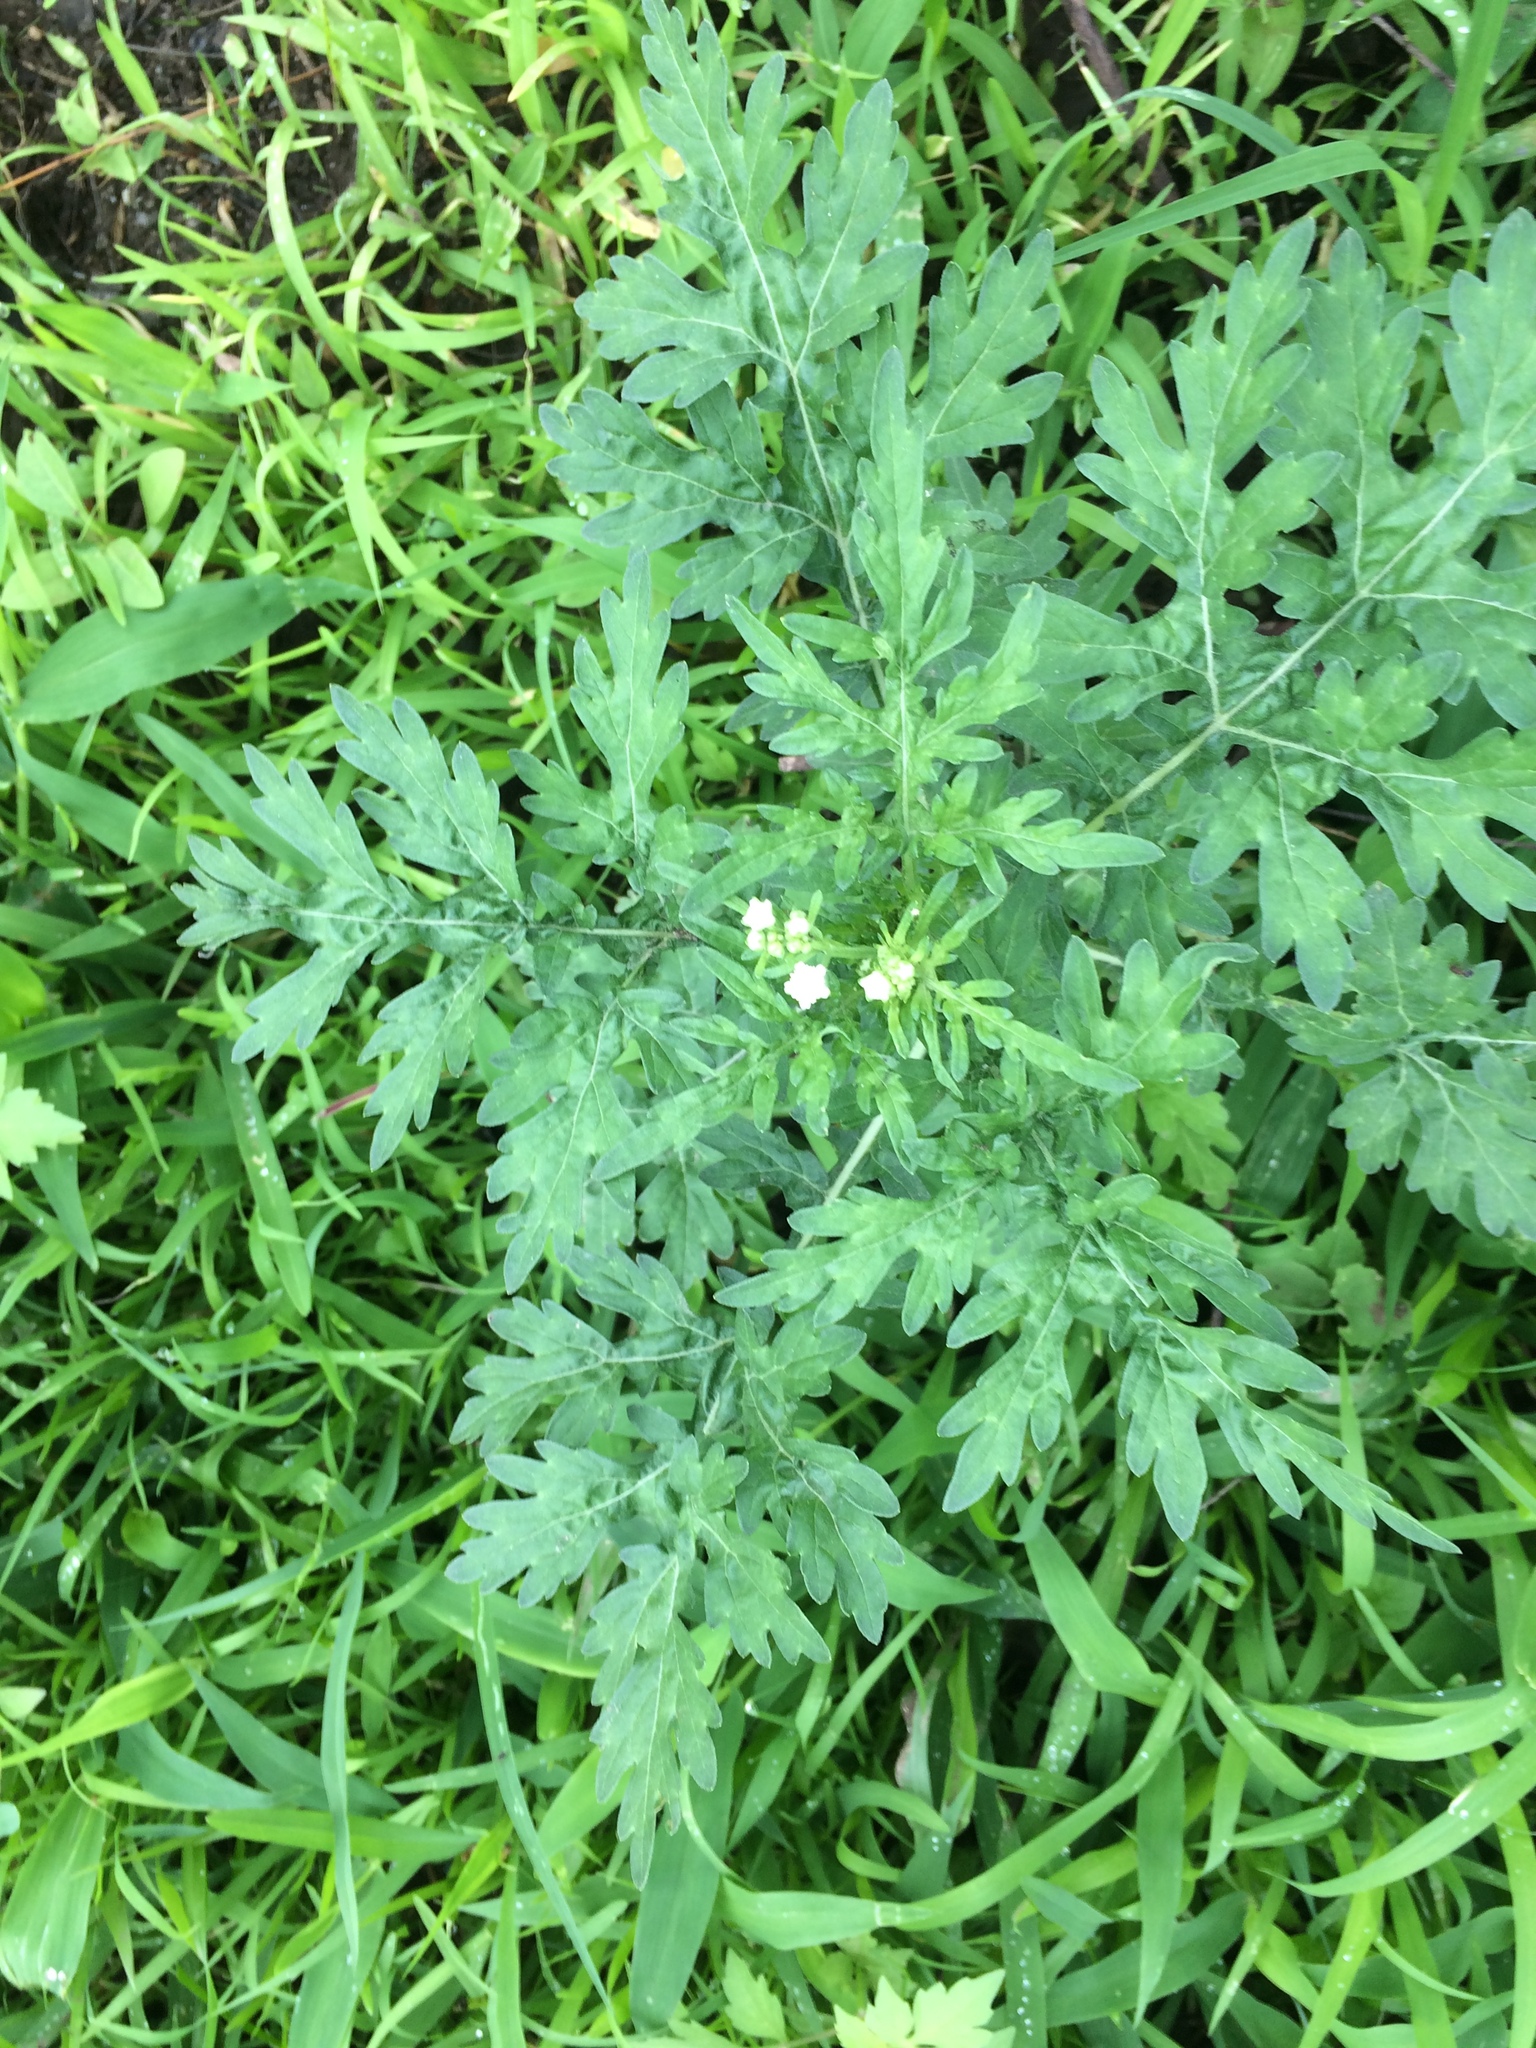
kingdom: Plantae
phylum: Tracheophyta
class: Magnoliopsida
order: Asterales
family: Asteraceae
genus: Parthenium
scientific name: Parthenium hysterophorus
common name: Santa maria feverfew
